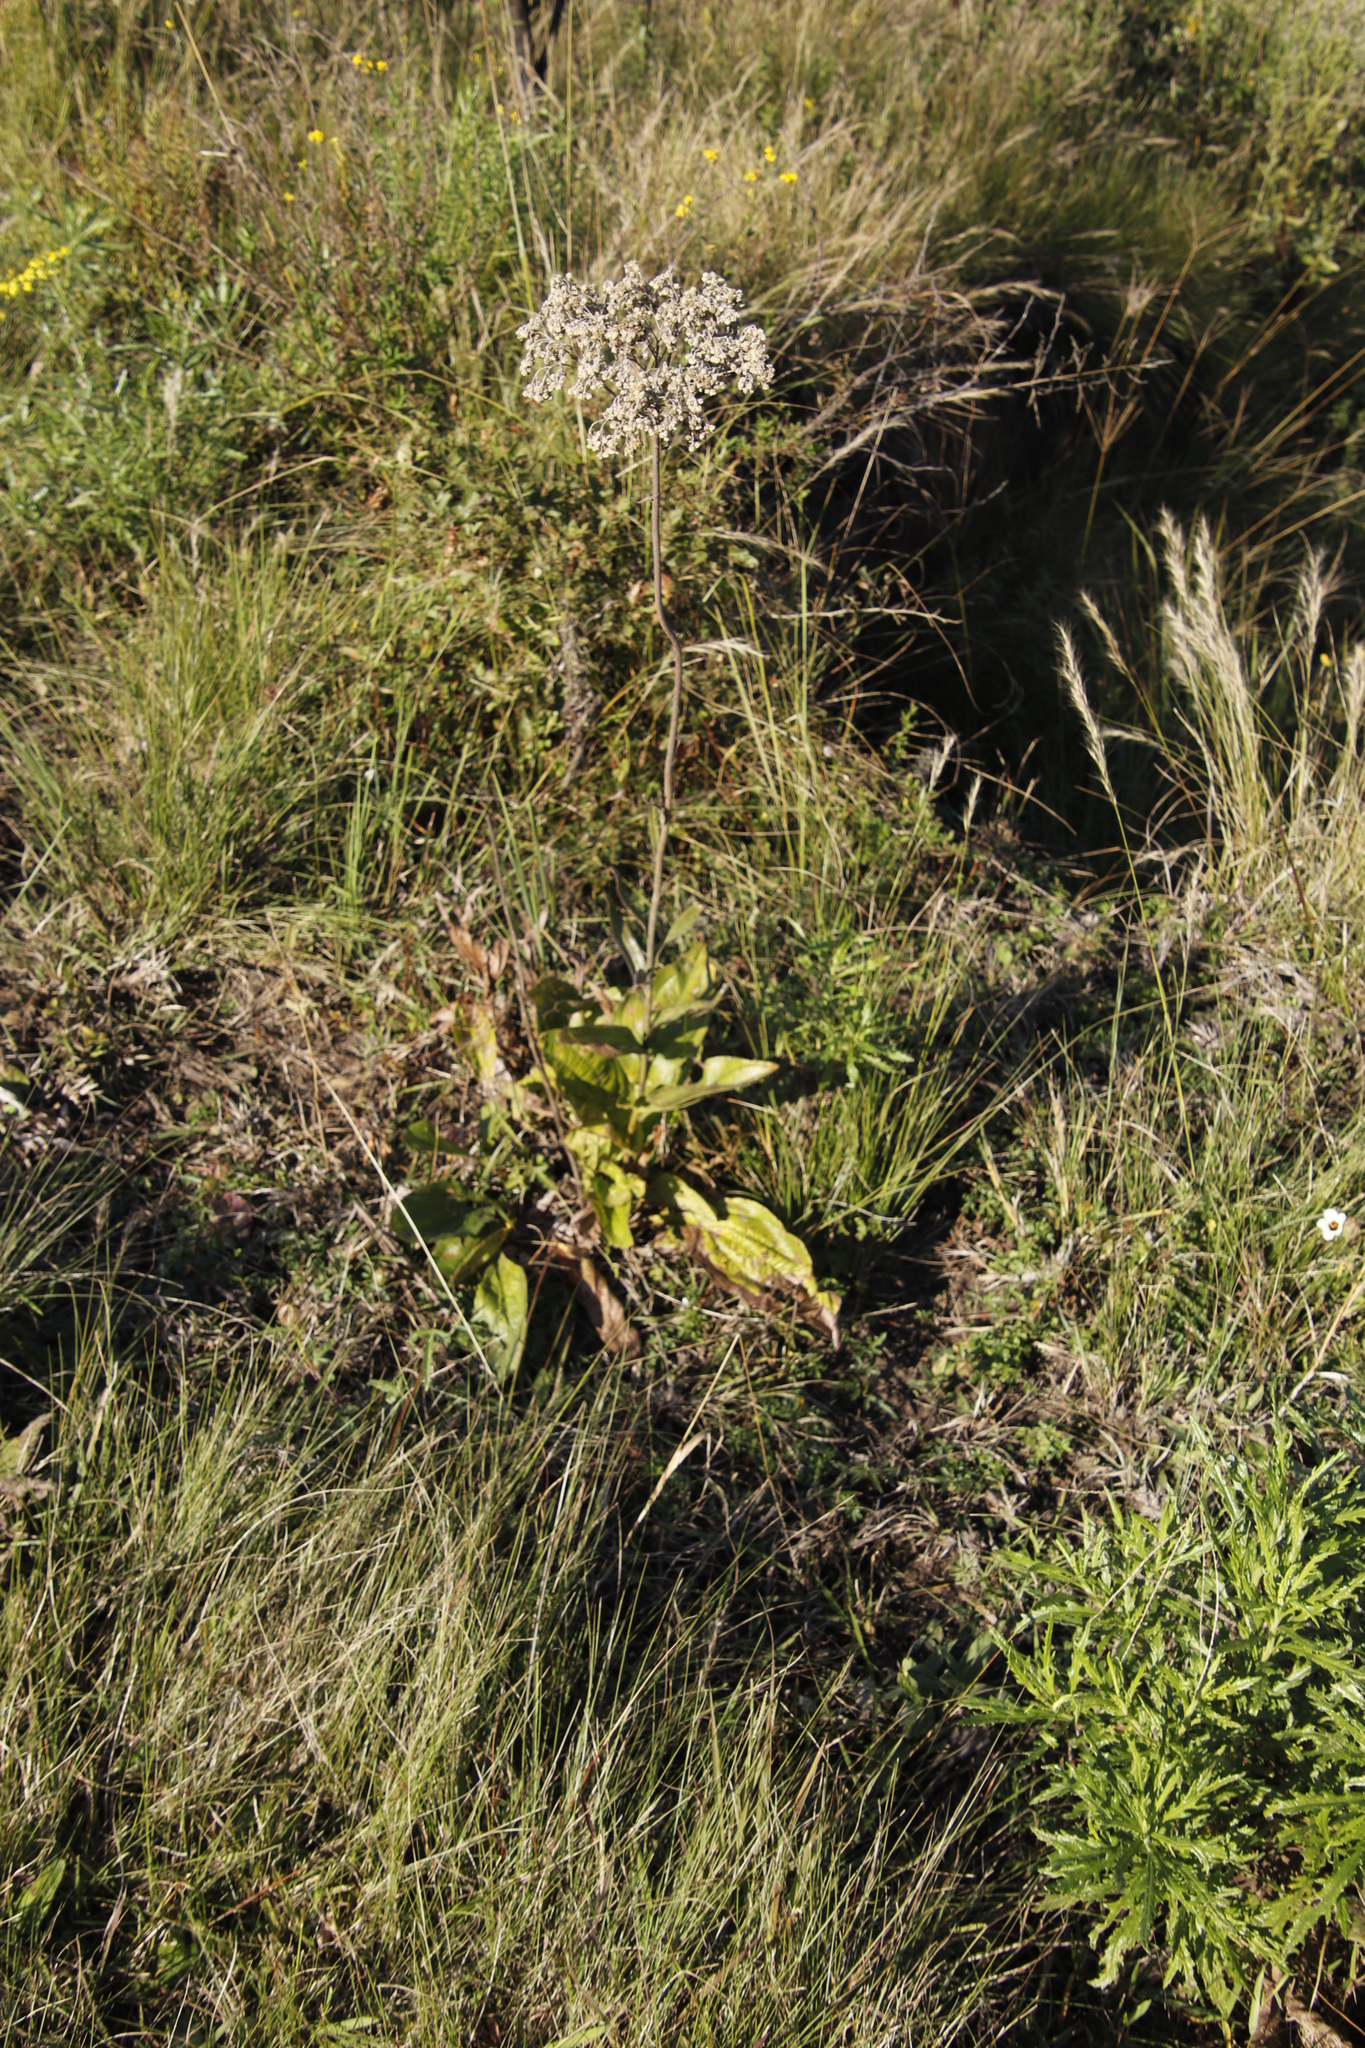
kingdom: Plantae
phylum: Tracheophyta
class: Magnoliopsida
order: Asterales
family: Asteraceae
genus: Helichrysum
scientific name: Helichrysum nudifolium
